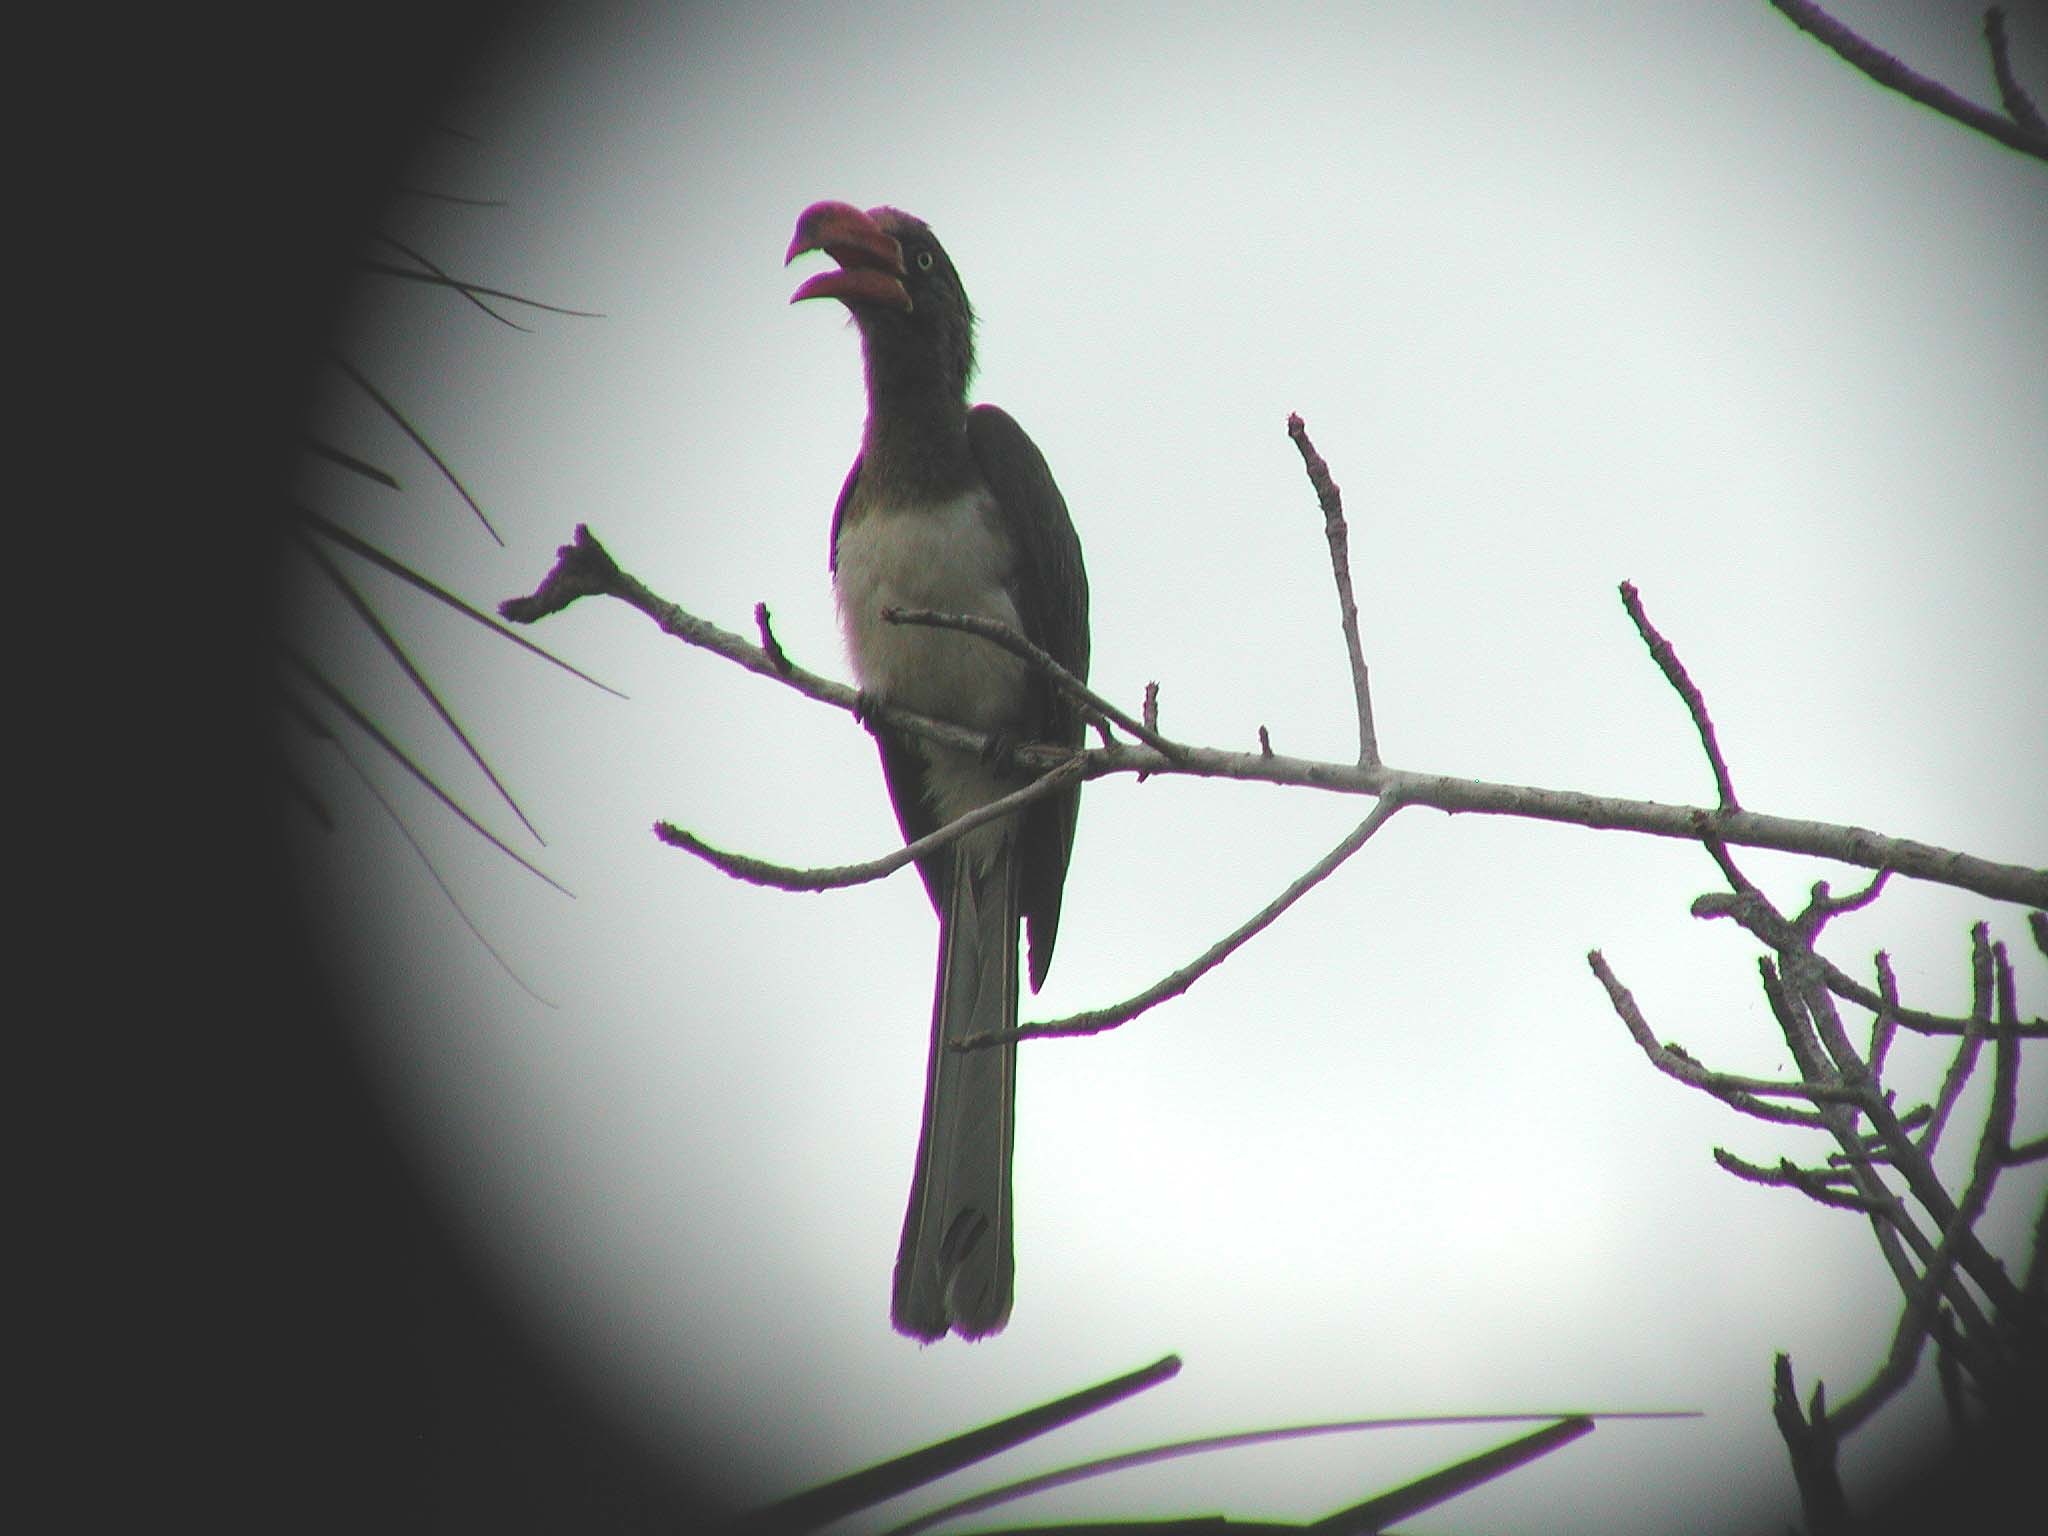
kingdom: Animalia
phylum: Chordata
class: Aves
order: Bucerotiformes
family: Bucerotidae
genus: Lophoceros
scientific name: Lophoceros alboterminatus
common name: Crowned hornbill
